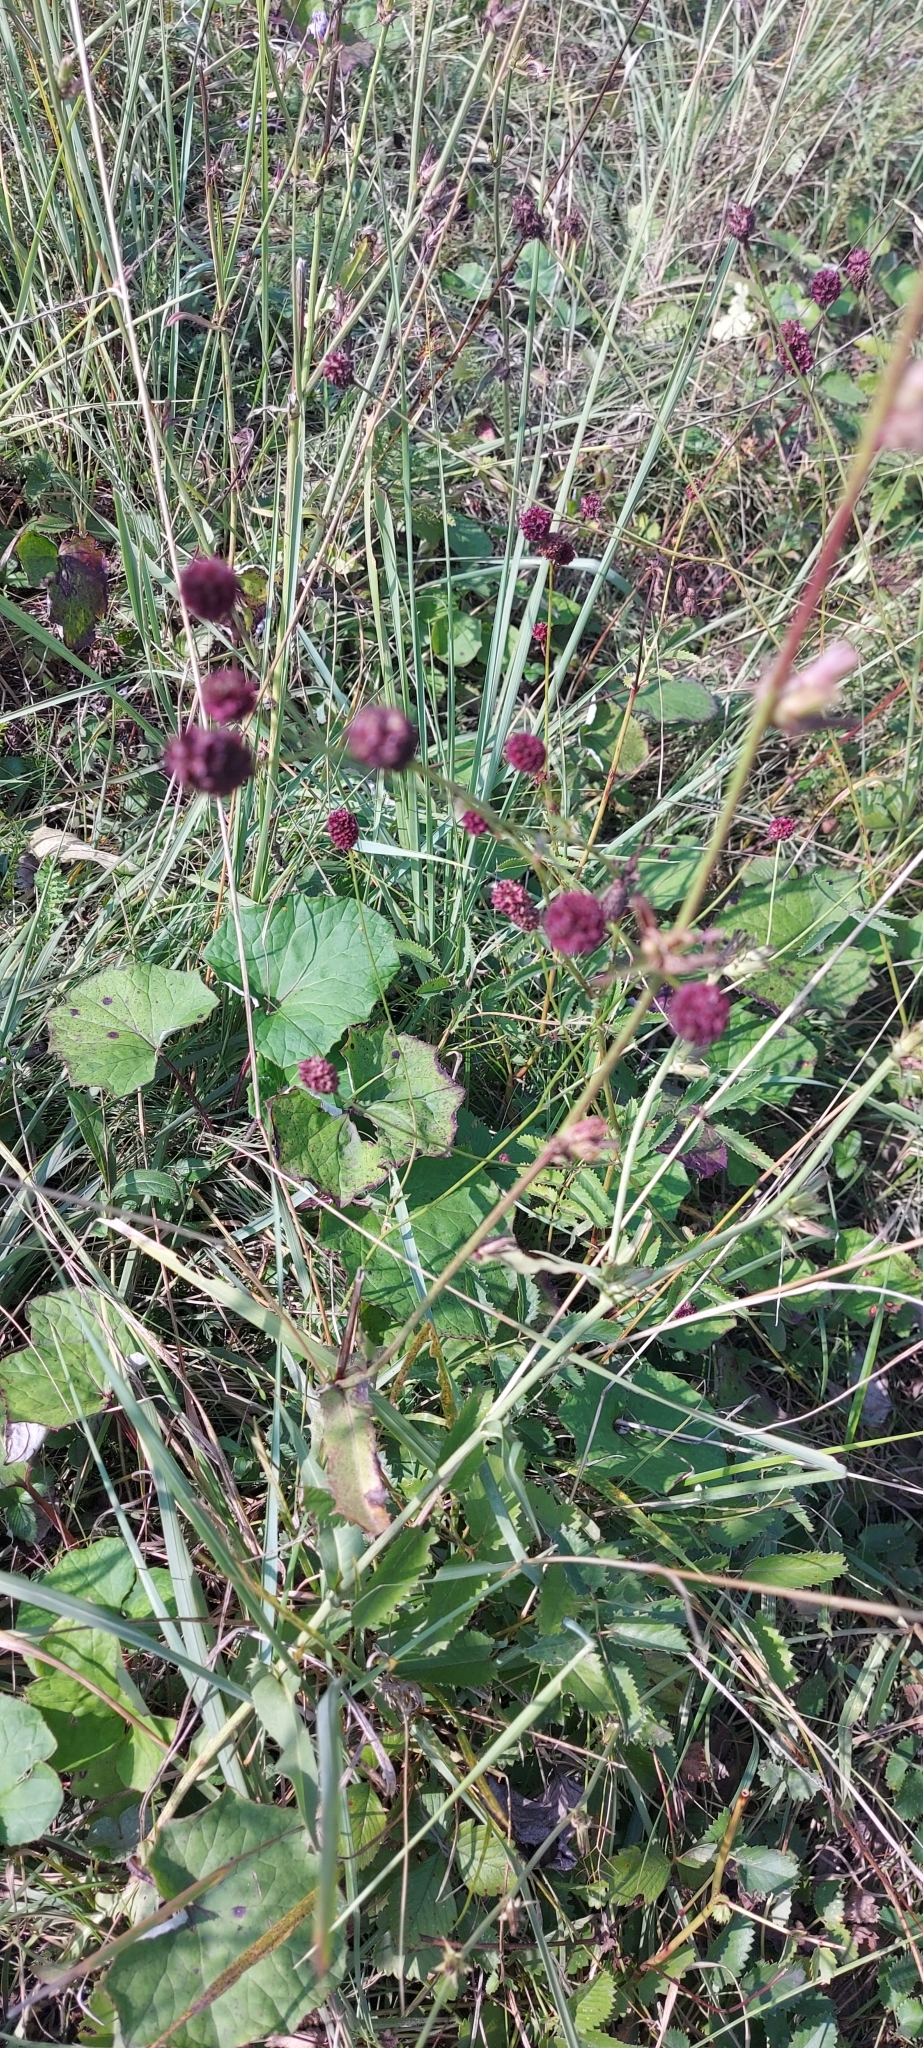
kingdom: Plantae
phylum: Tracheophyta
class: Magnoliopsida
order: Rosales
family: Rosaceae
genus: Sanguisorba
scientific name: Sanguisorba officinalis
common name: Great burnet
